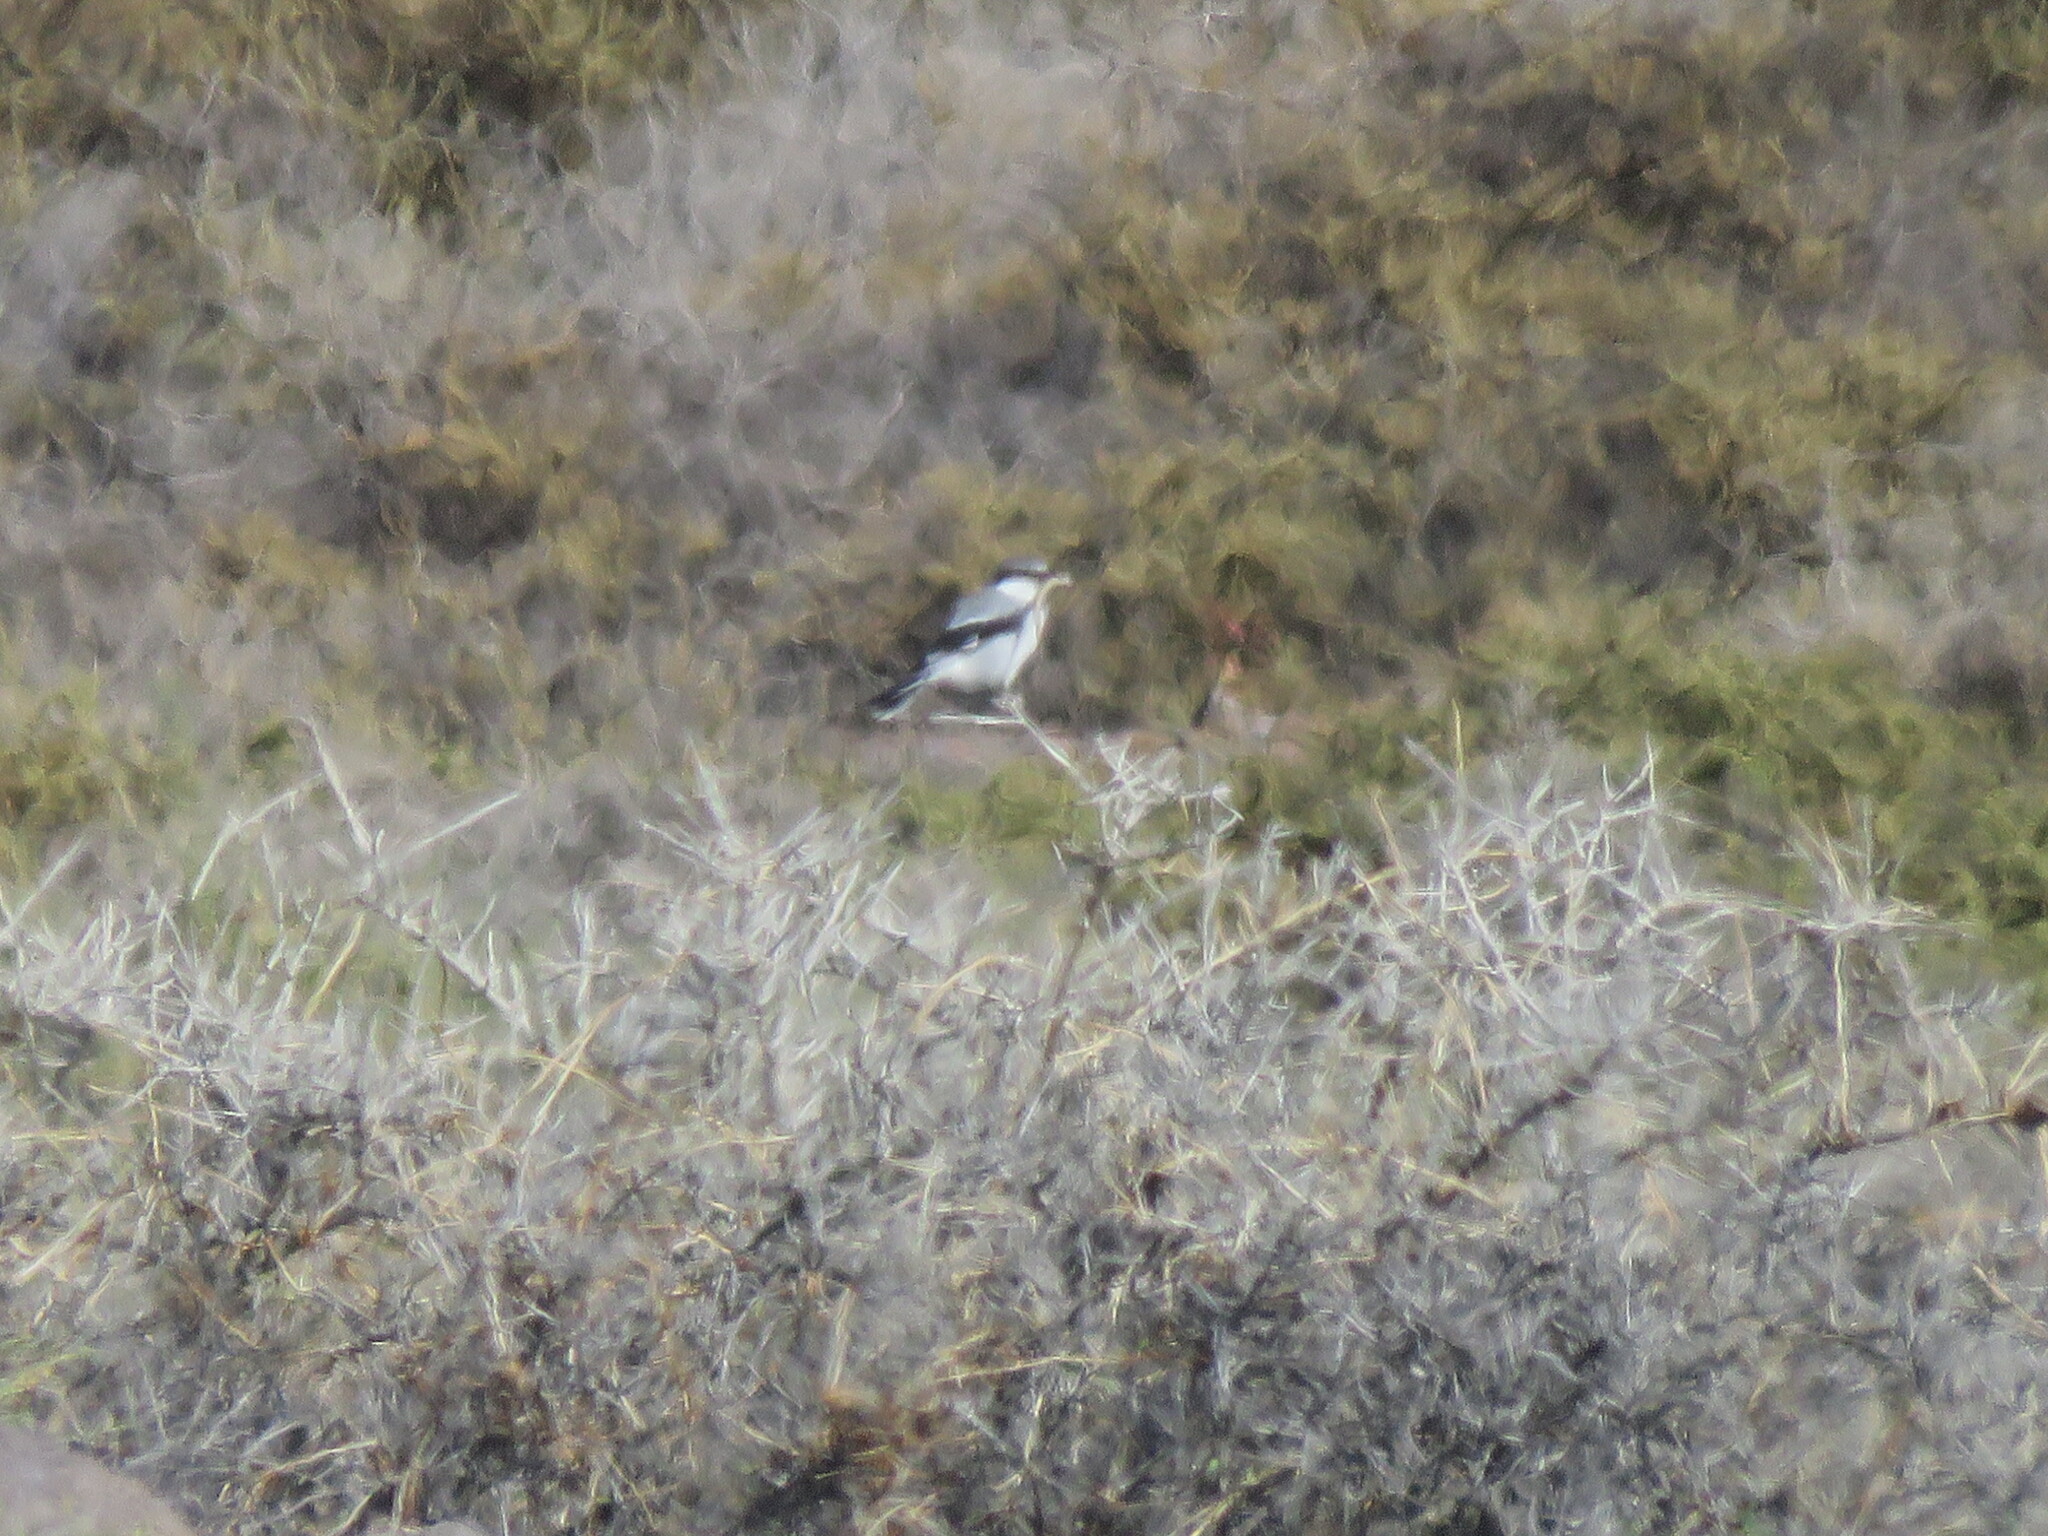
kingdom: Animalia
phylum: Chordata
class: Aves
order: Passeriformes
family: Laniidae
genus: Lanius
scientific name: Lanius excubitor
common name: Great grey shrike
